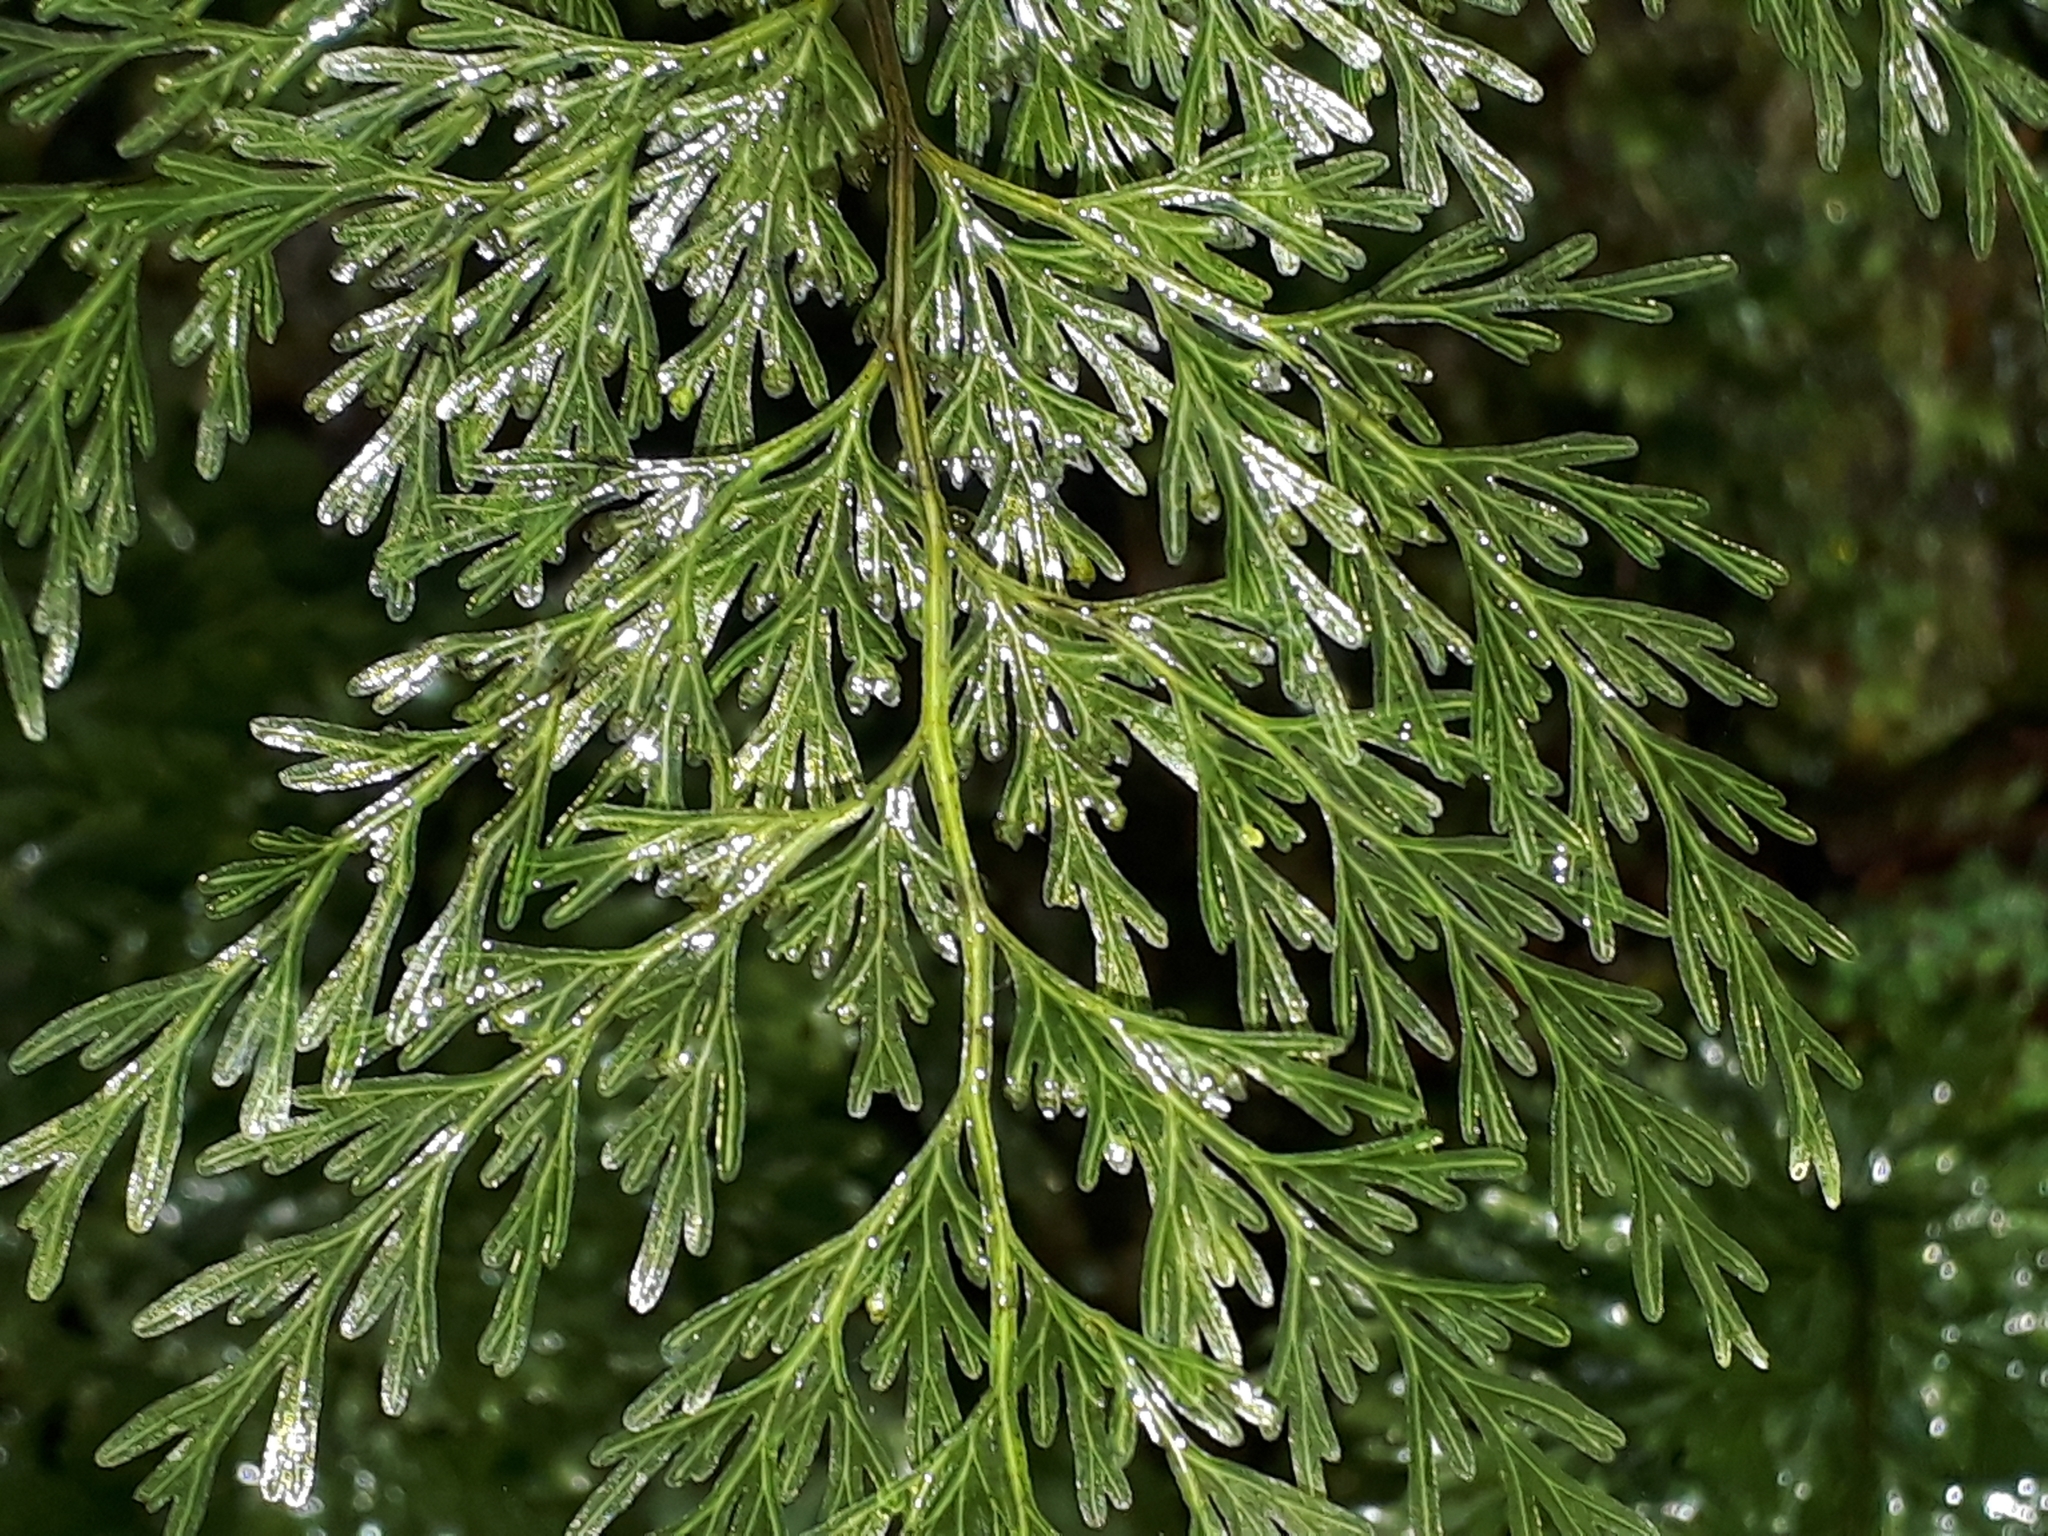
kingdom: Plantae
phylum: Tracheophyta
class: Polypodiopsida
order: Hymenophyllales
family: Hymenophyllaceae
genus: Hymenophyllum
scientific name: Hymenophyllum demissum
